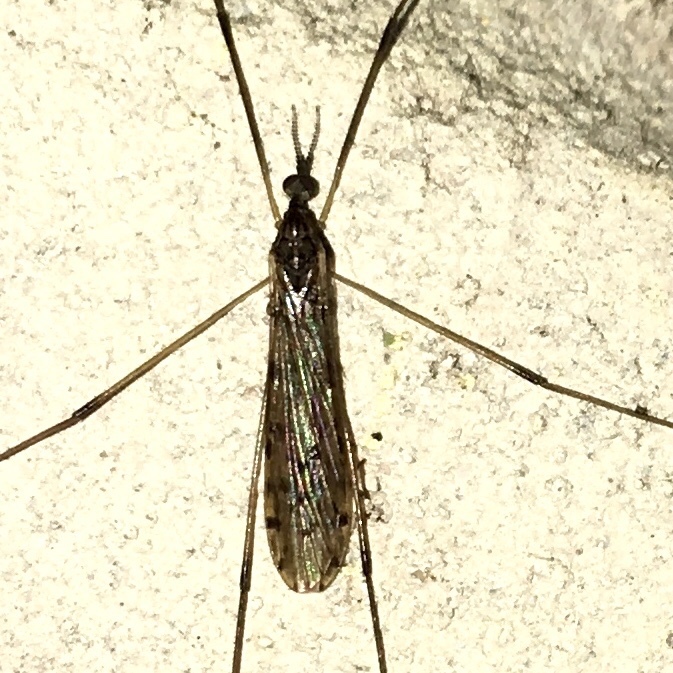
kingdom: Animalia
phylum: Arthropoda
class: Insecta
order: Diptera
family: Limoniidae
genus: Rhipidia
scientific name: Rhipidia domestica
